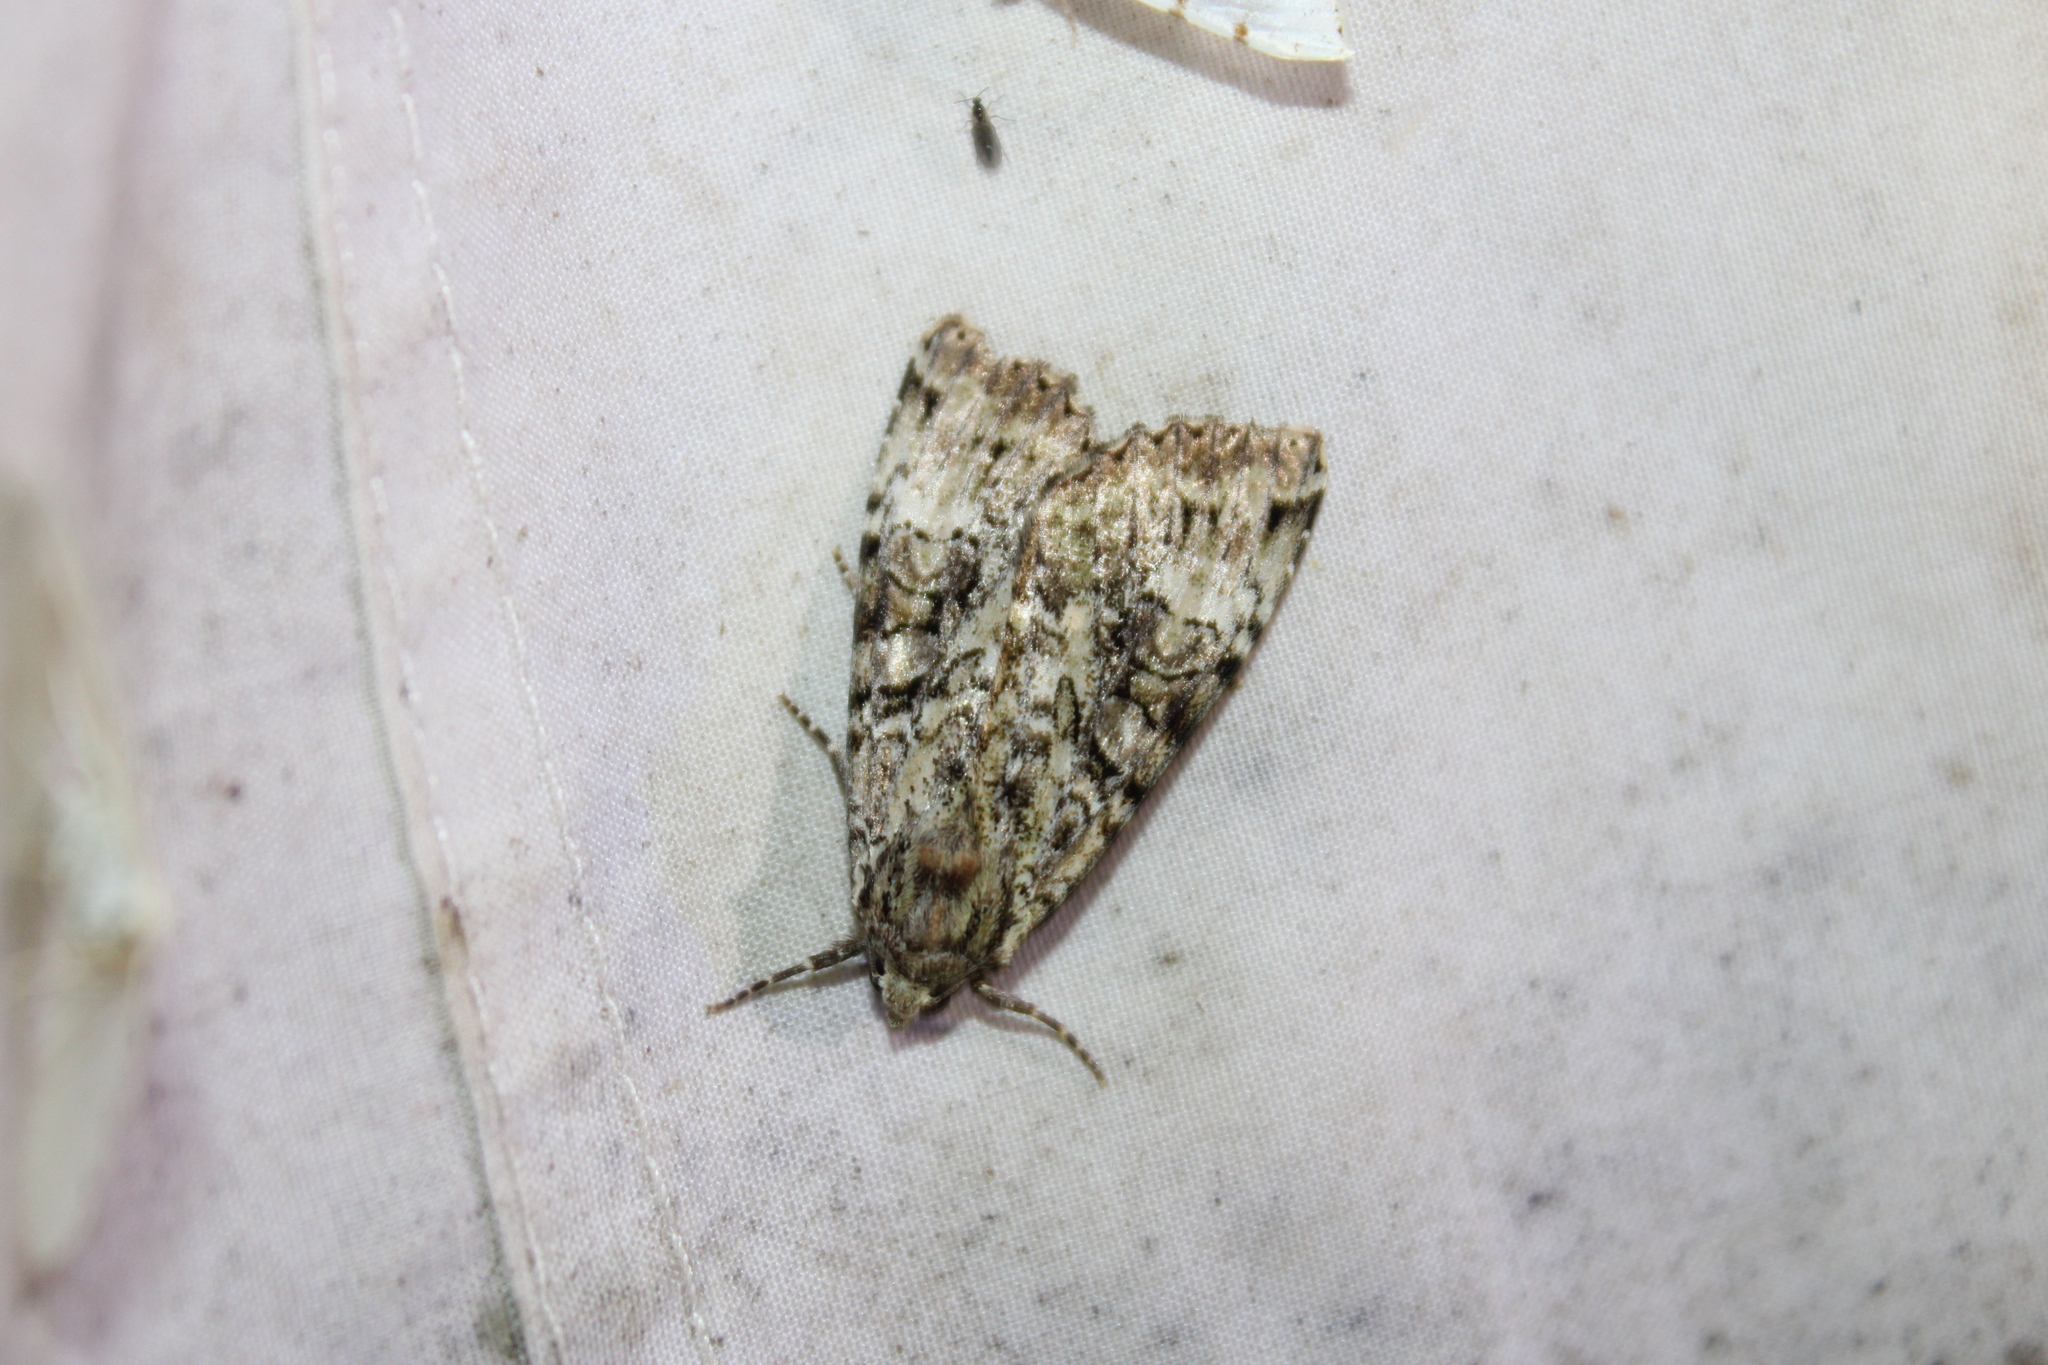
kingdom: Animalia
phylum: Arthropoda
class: Insecta
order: Lepidoptera
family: Noctuidae
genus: Anaplectoides
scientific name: Anaplectoides prasina
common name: Green arches
